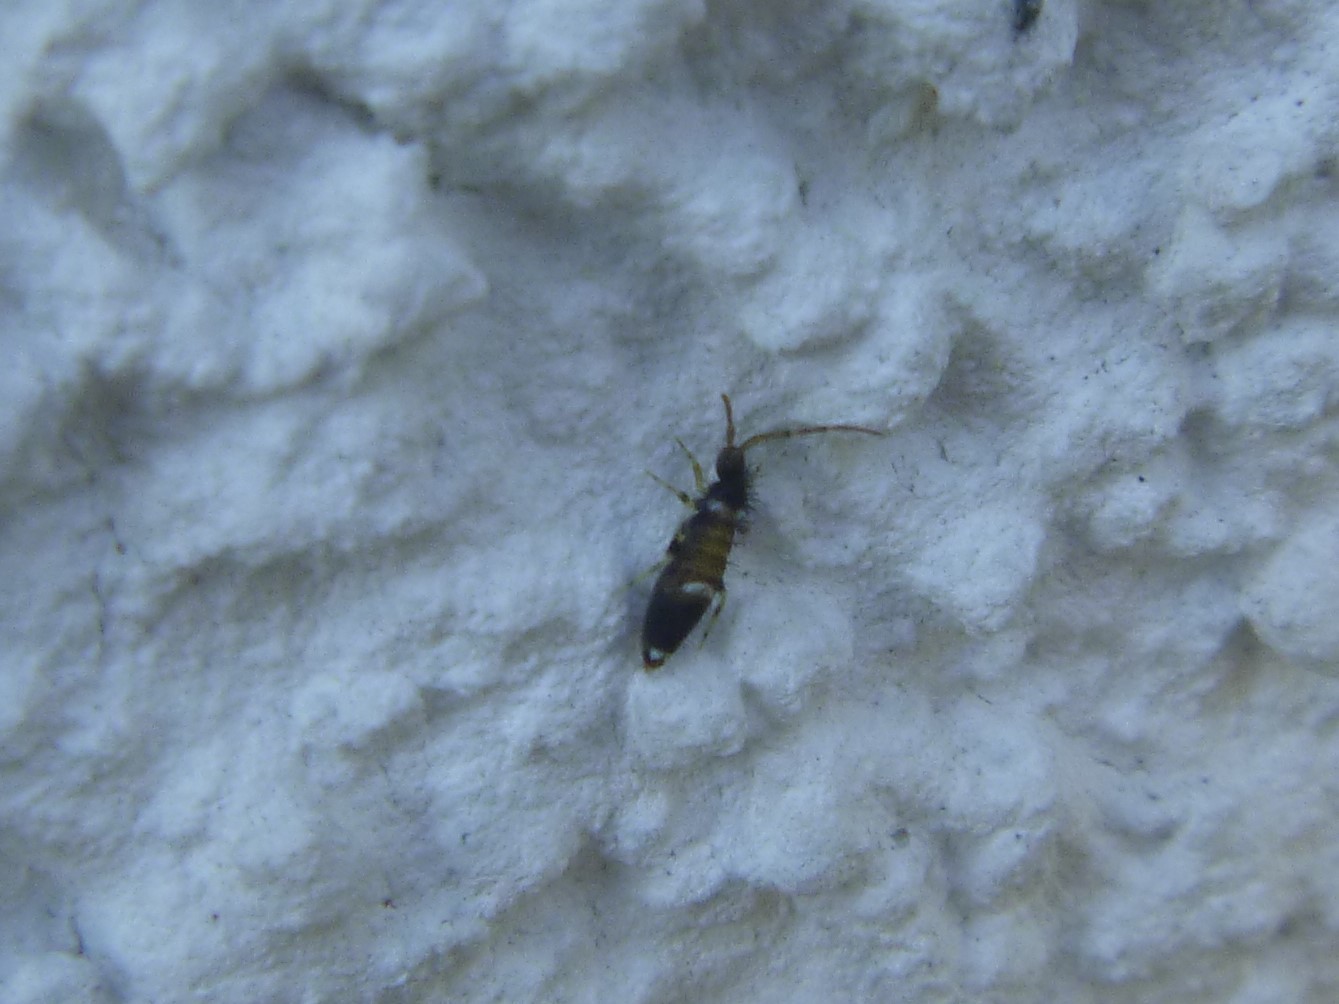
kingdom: Animalia
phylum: Arthropoda
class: Collembola
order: Entomobryomorpha
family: Entomobryidae
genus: Entomobrya
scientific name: Entomobrya dorsalis
